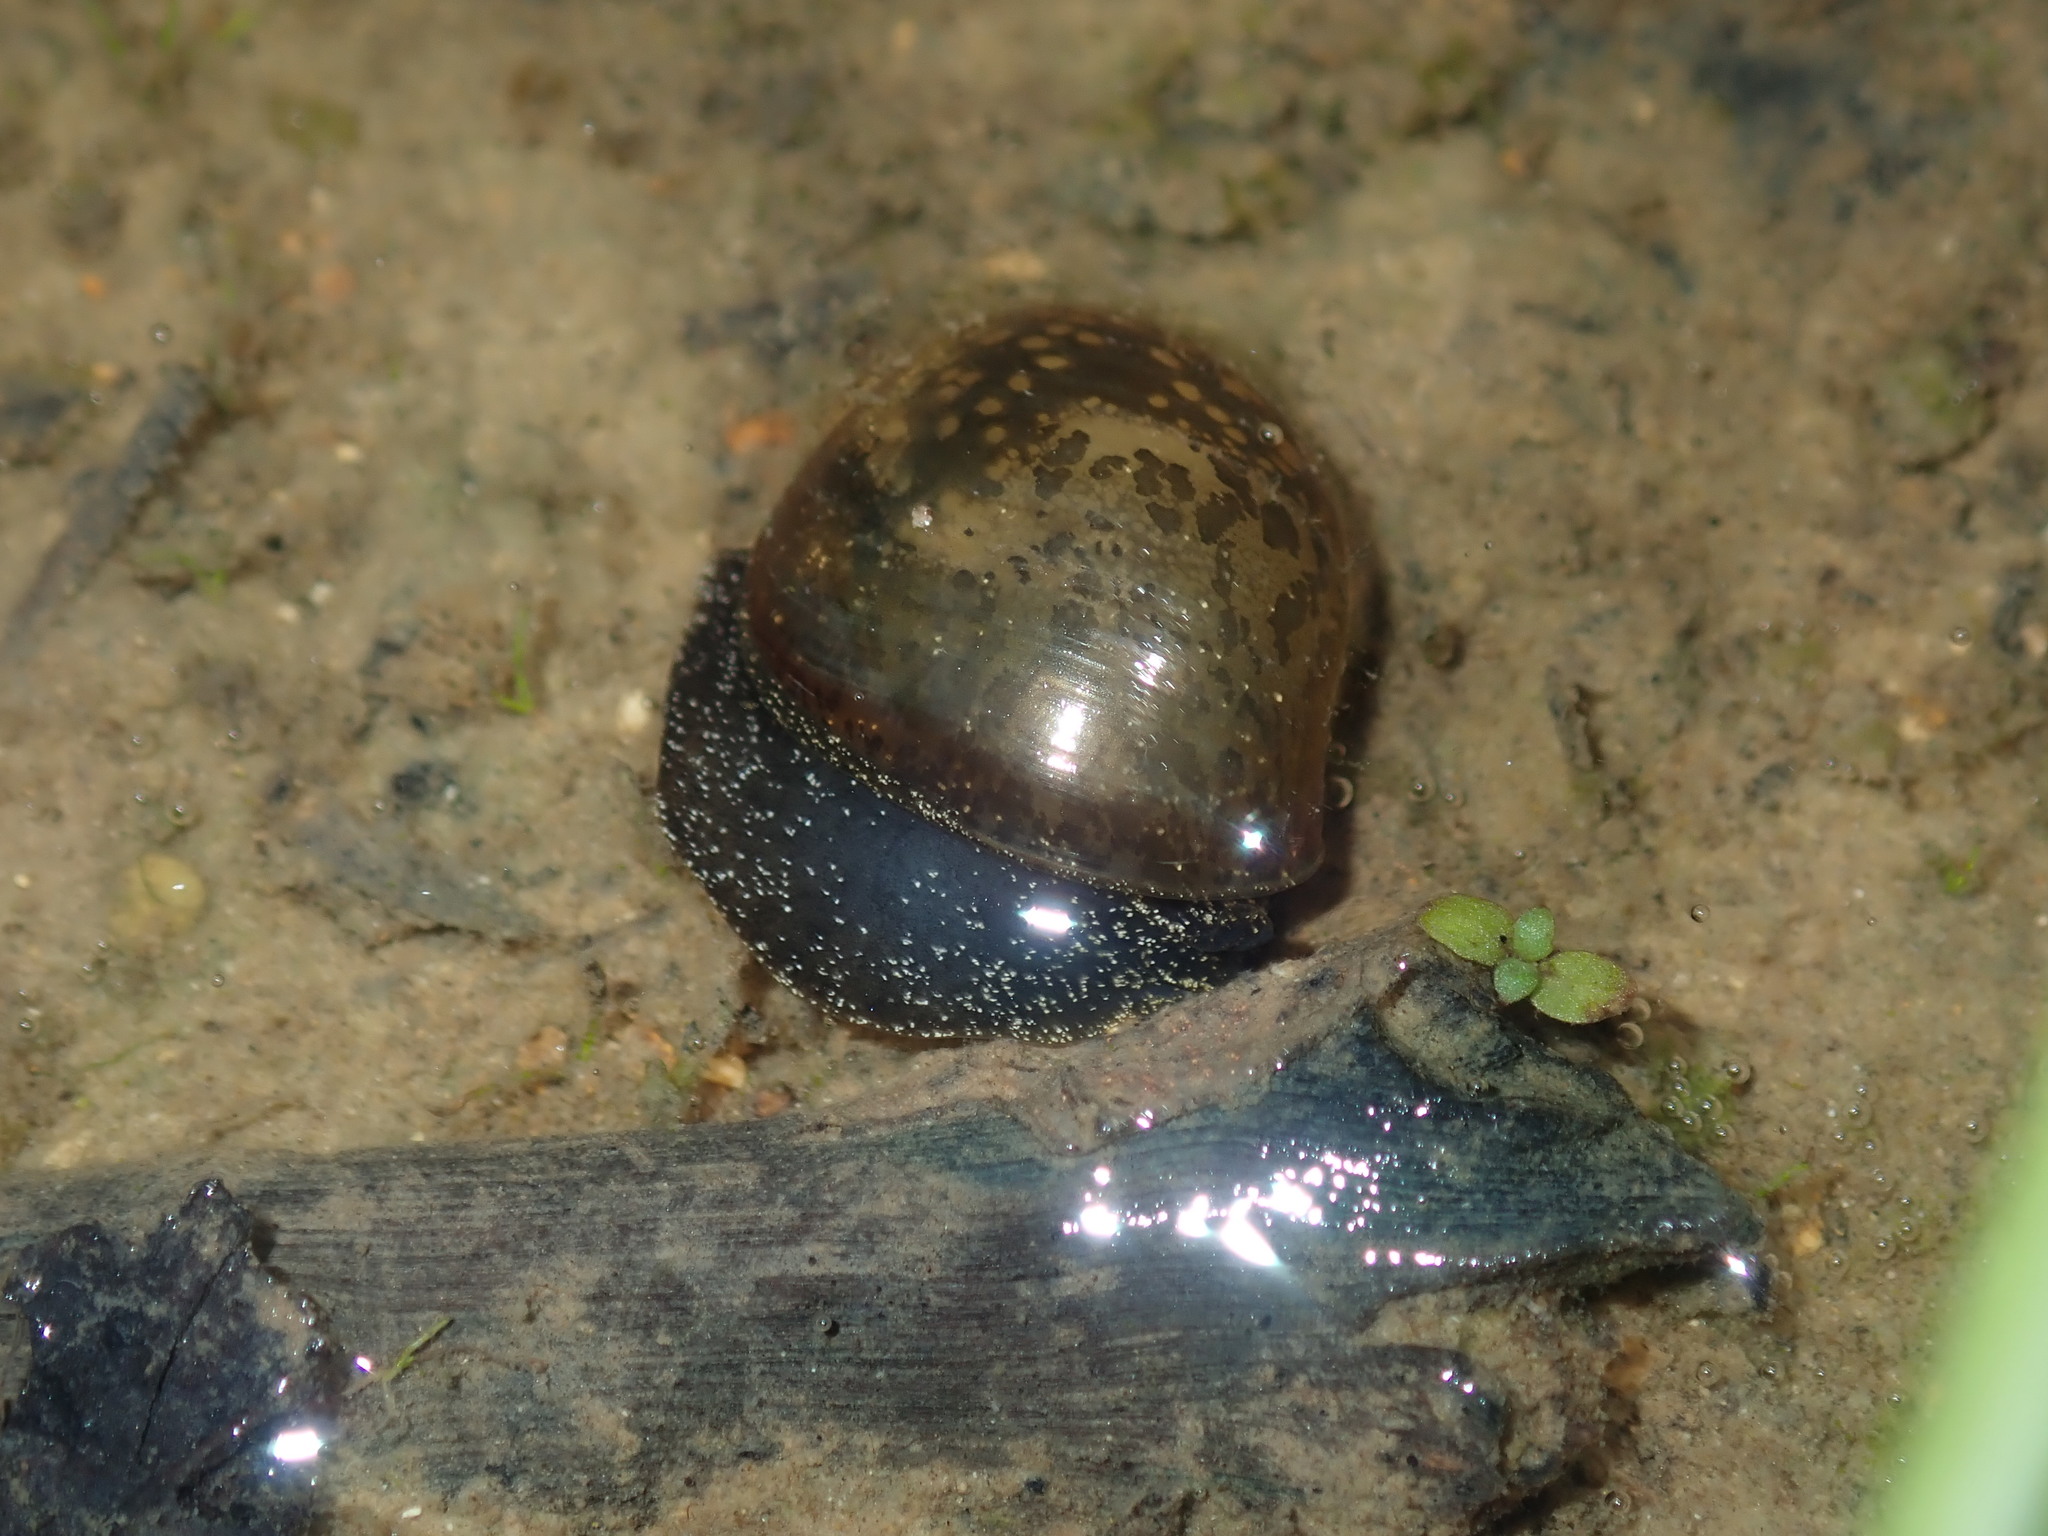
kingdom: Animalia
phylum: Mollusca
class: Gastropoda
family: Lymnaeidae
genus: Bullastra
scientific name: Bullastra lessoni
